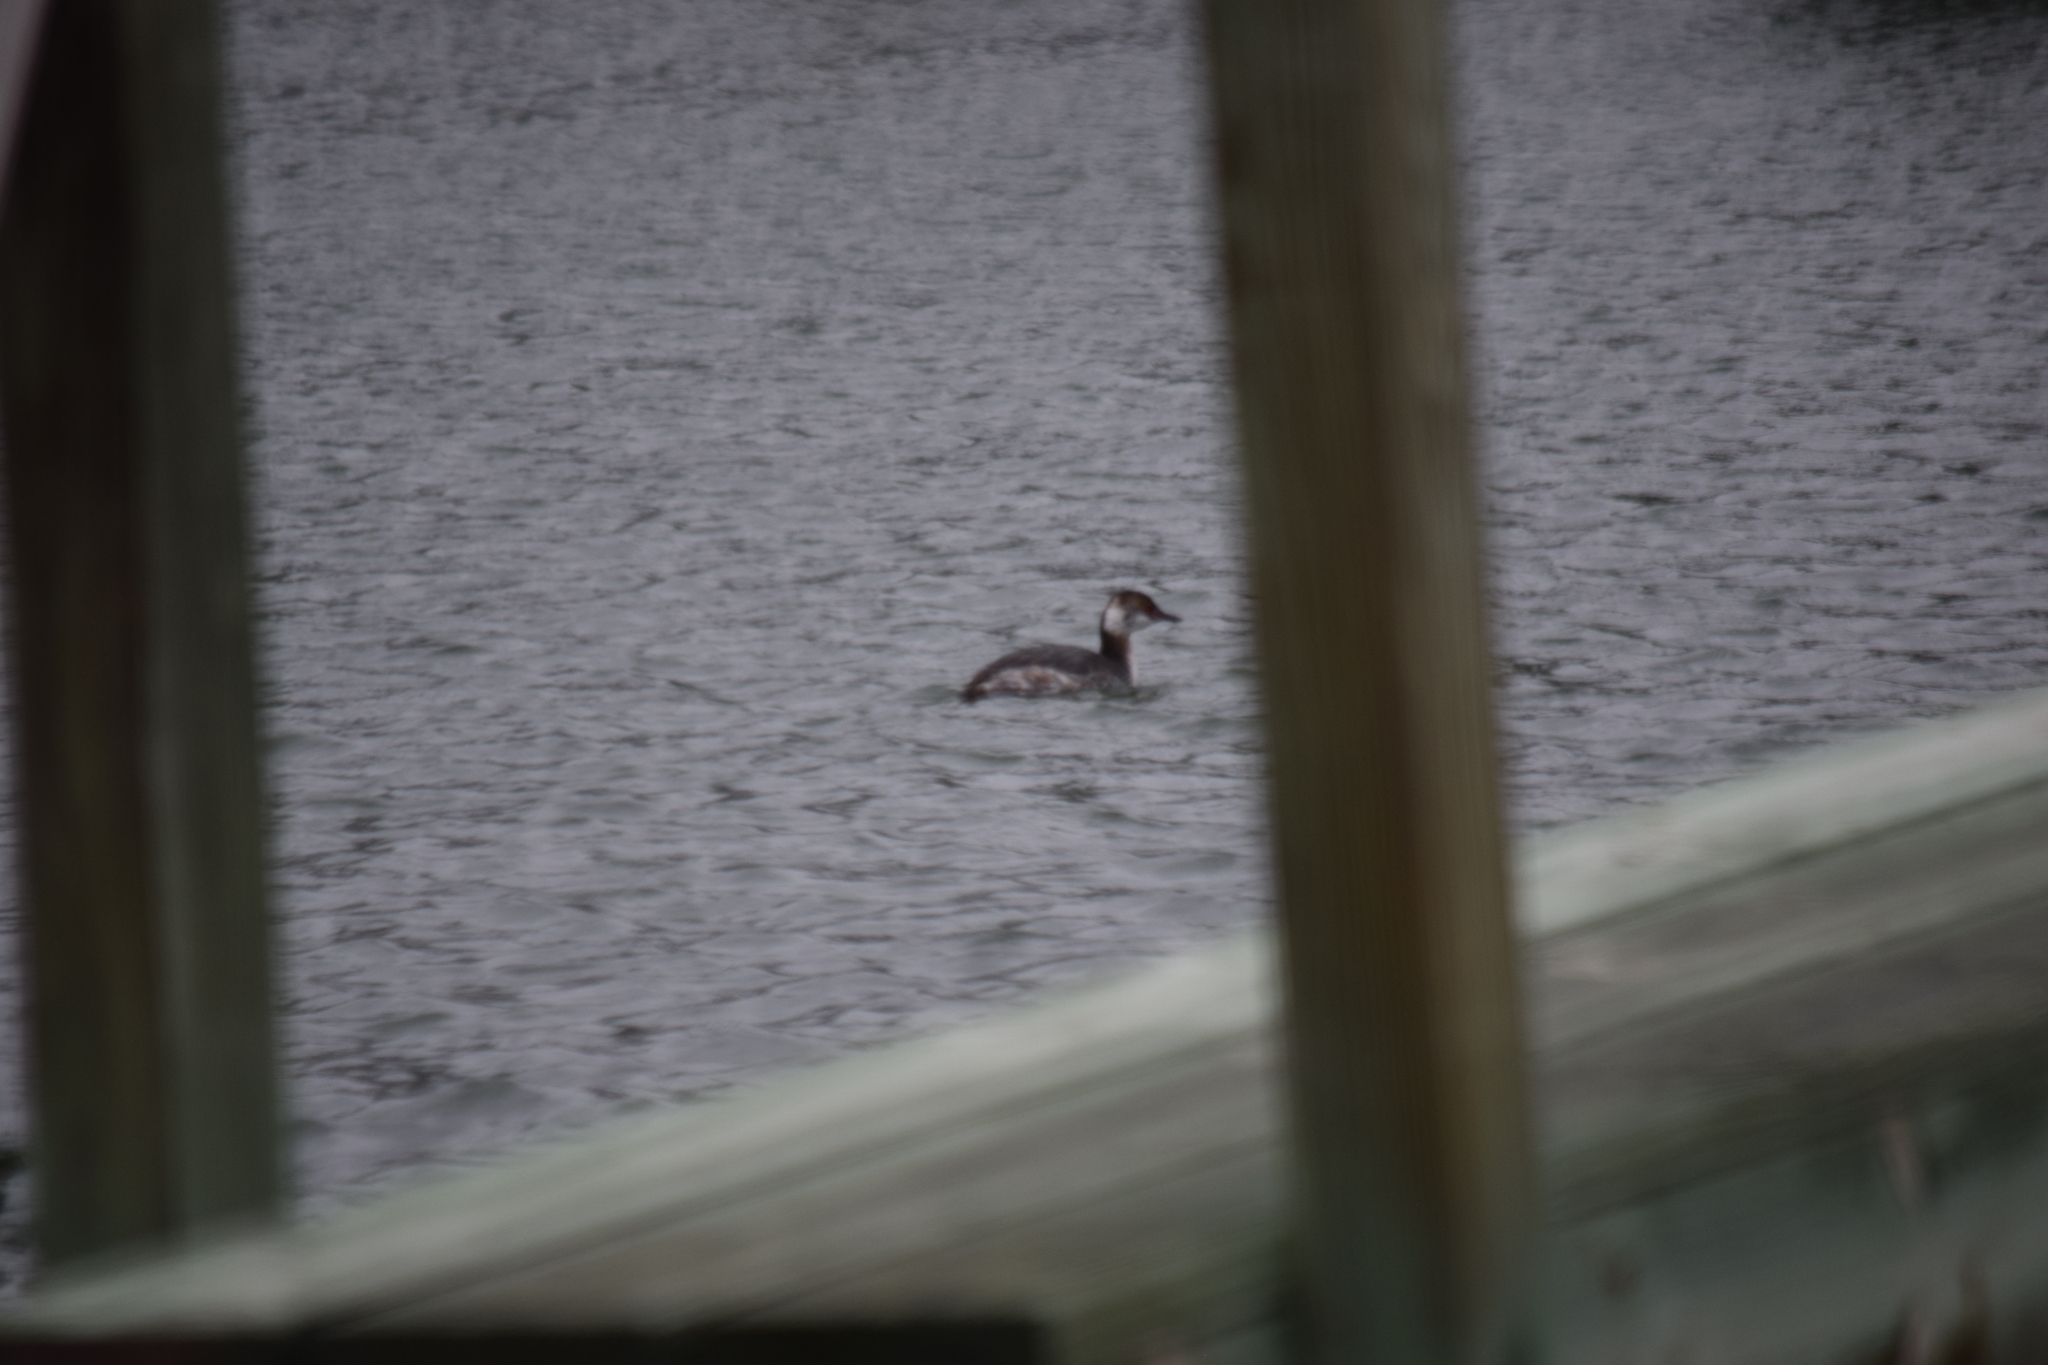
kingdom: Animalia
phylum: Chordata
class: Aves
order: Podicipediformes
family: Podicipedidae
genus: Podiceps
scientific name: Podiceps auritus
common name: Horned grebe
